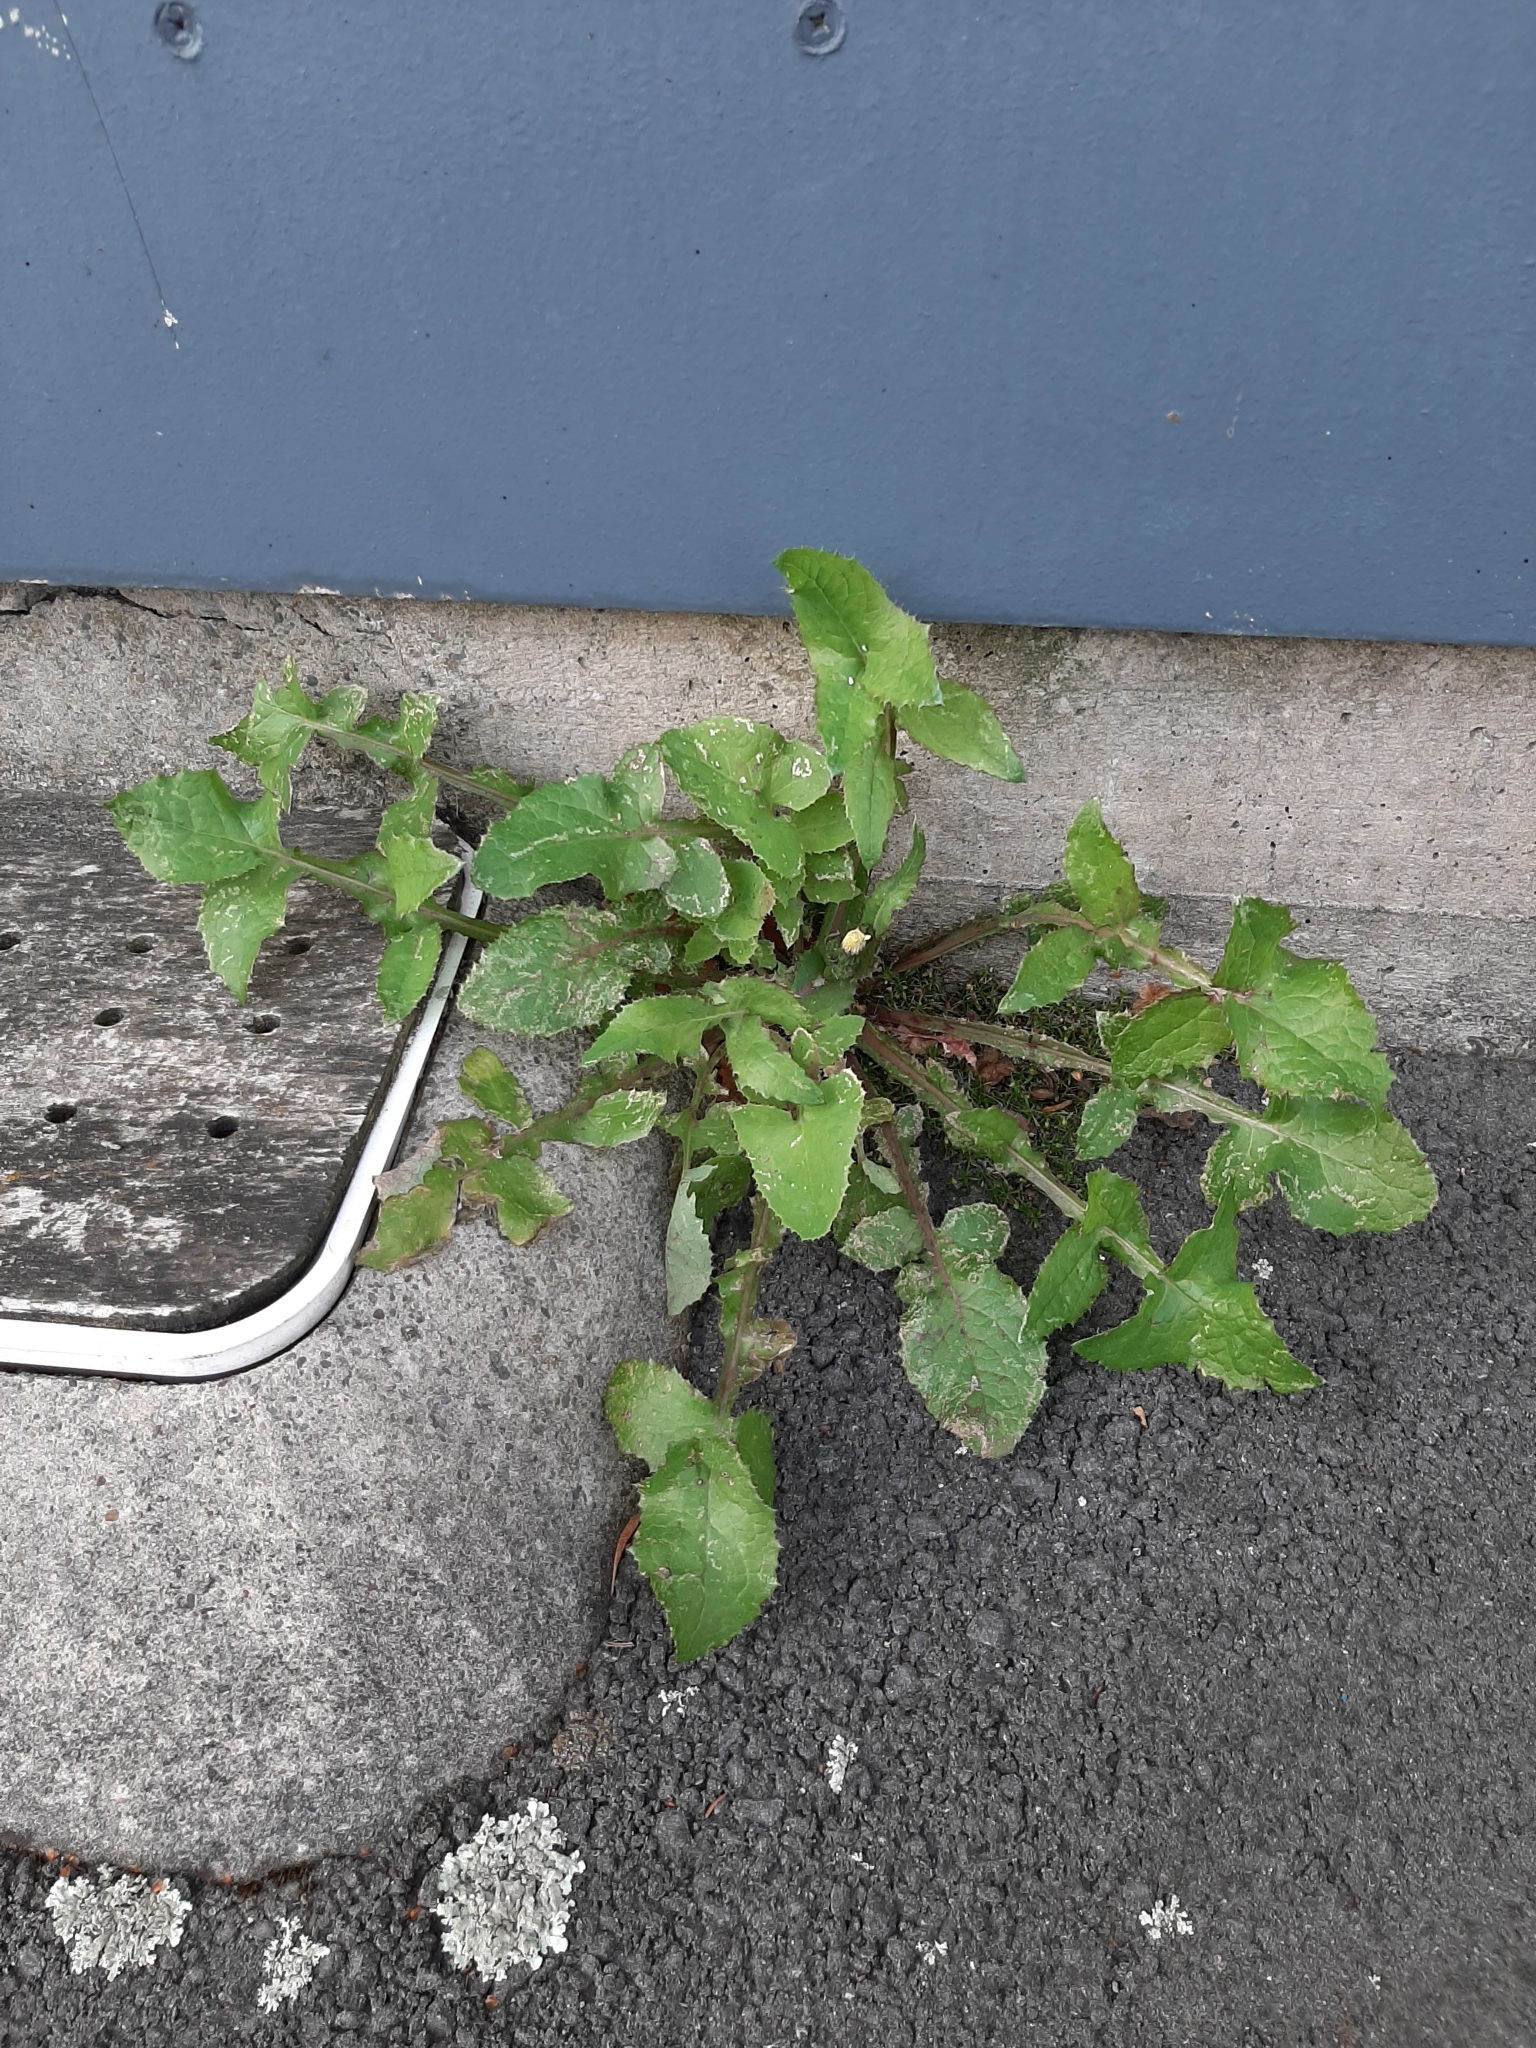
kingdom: Plantae
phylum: Tracheophyta
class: Magnoliopsida
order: Asterales
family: Asteraceae
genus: Sonchus
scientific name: Sonchus oleraceus
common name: Common sowthistle
